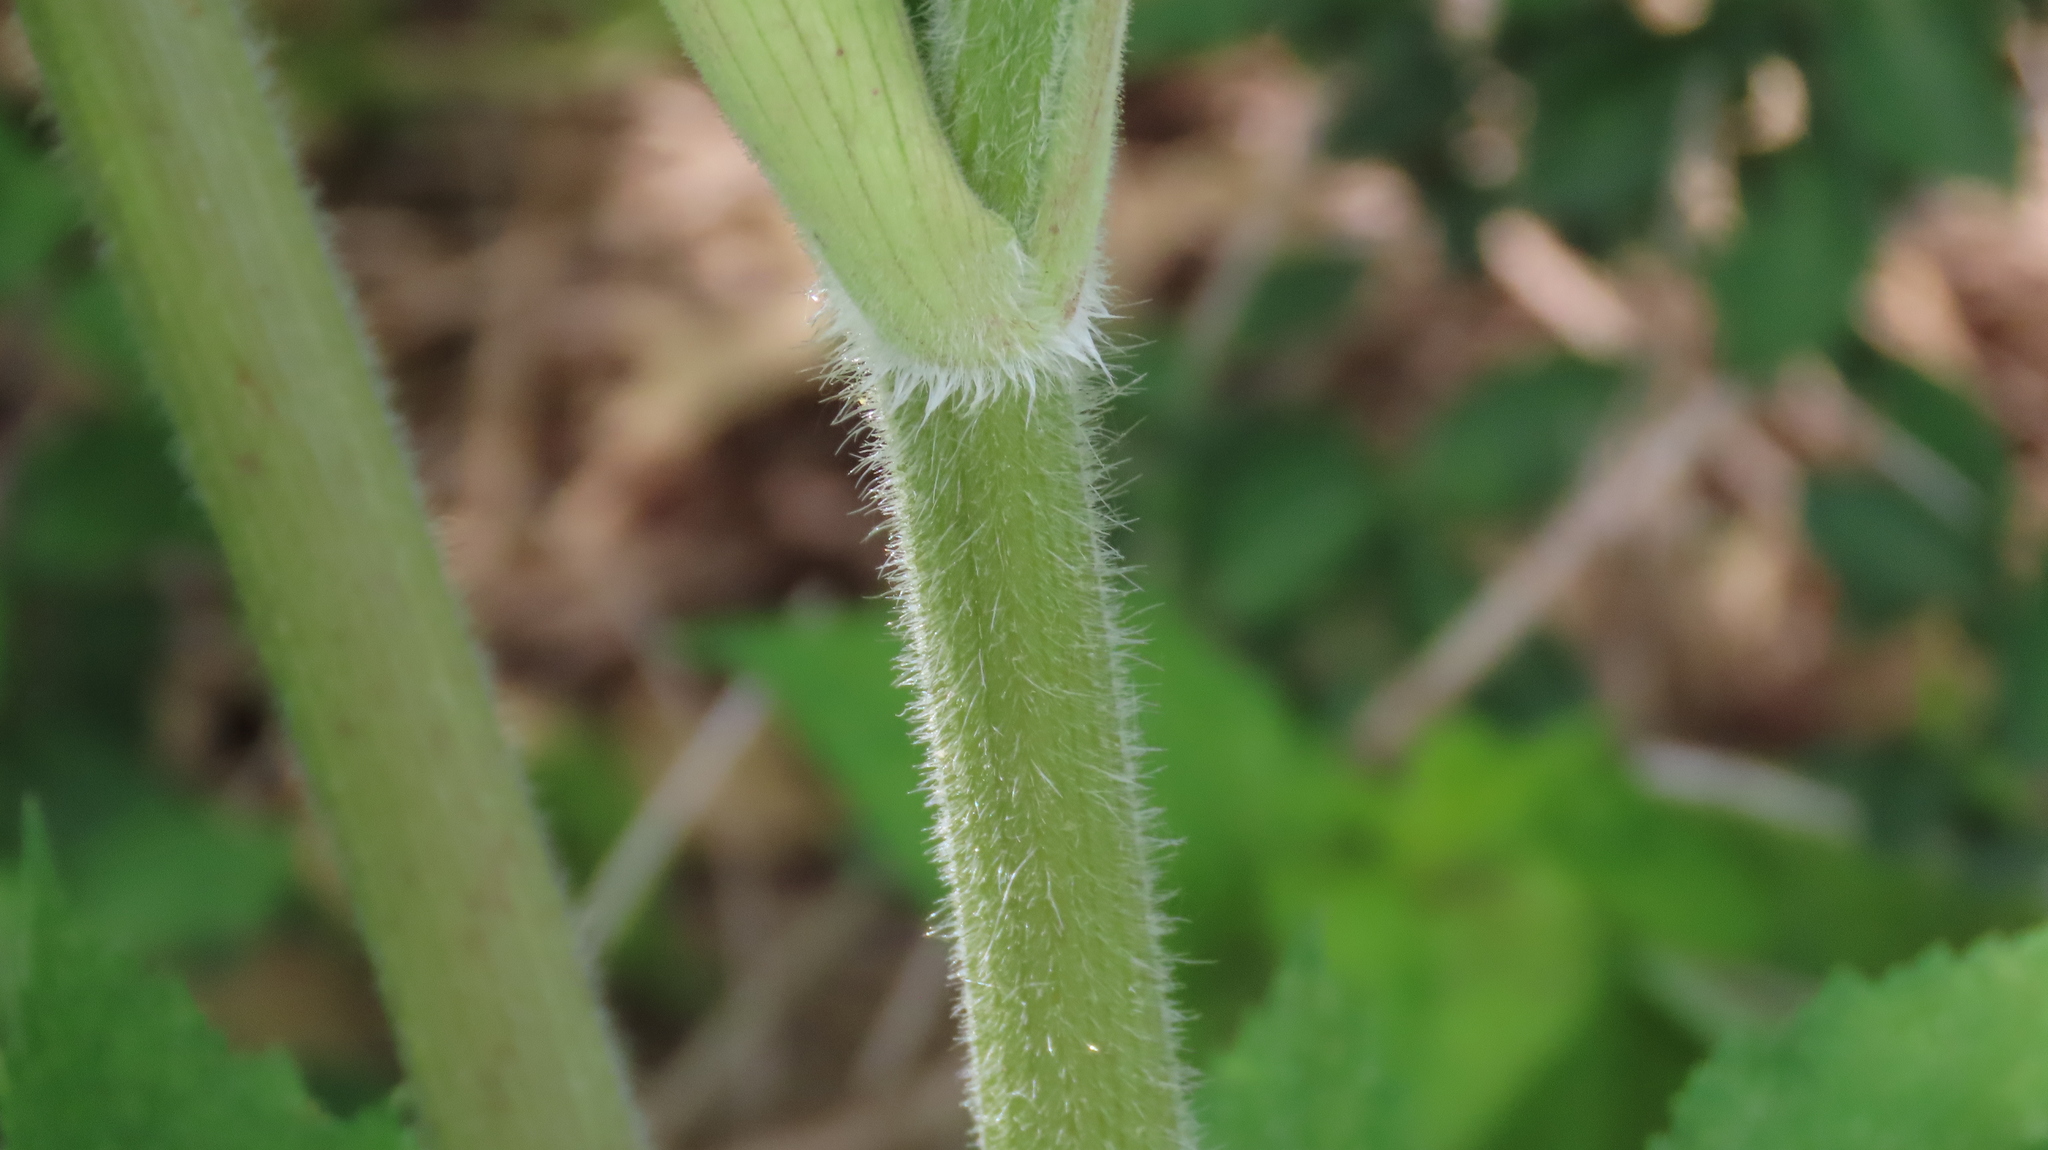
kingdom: Plantae
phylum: Tracheophyta
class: Magnoliopsida
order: Apiales
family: Apiaceae
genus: Heracleum
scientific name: Heracleum maximum
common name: American cow parsnip
